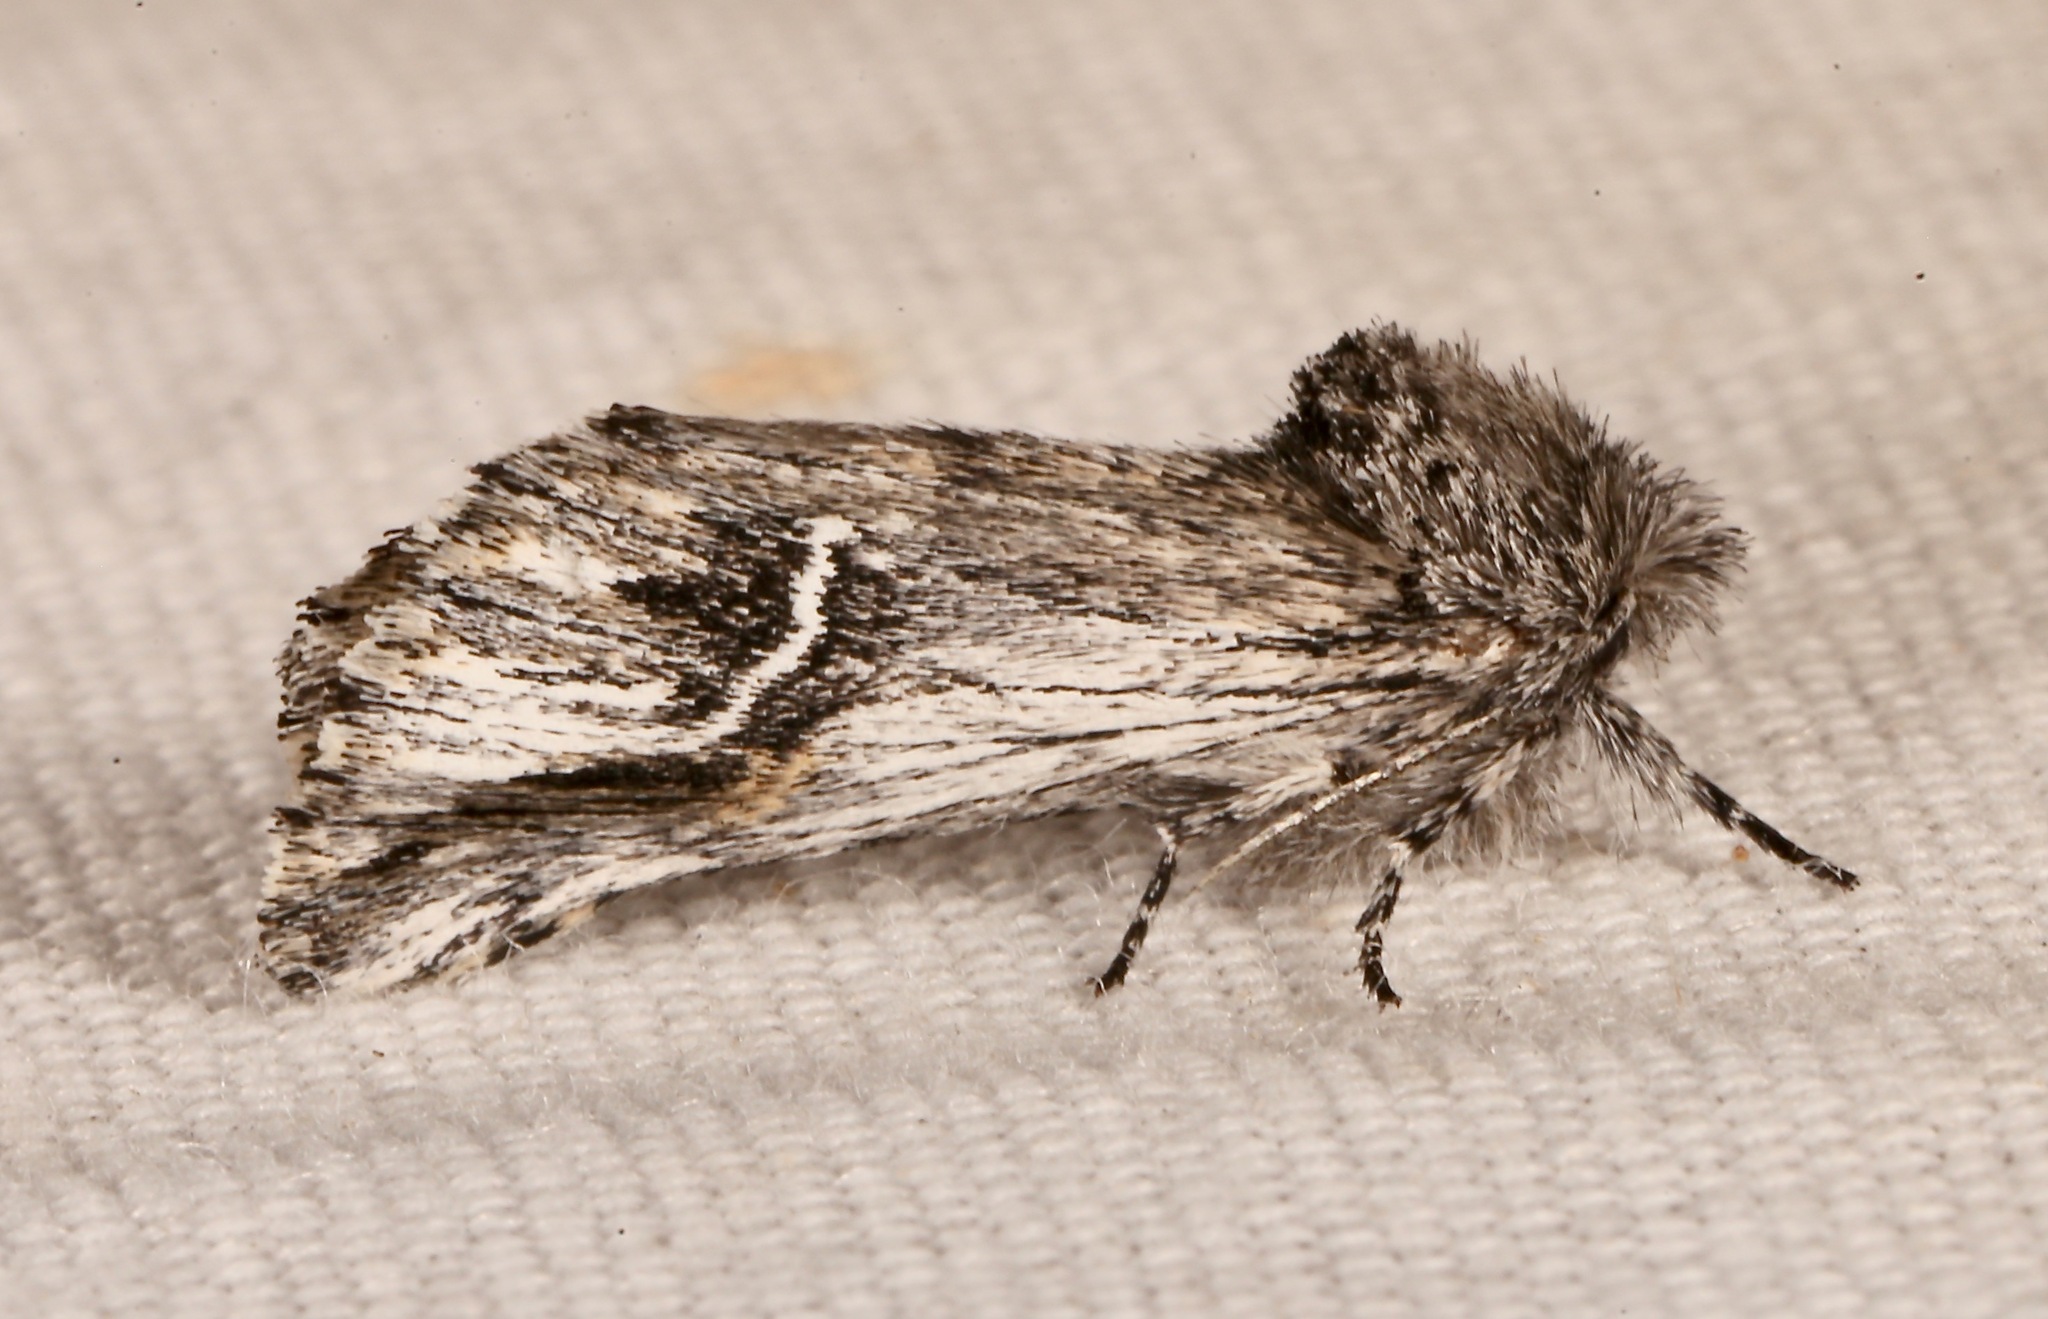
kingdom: Animalia
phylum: Arthropoda
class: Insecta
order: Lepidoptera
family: Notodontidae
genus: Ursia
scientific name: Ursia noctuiformis
